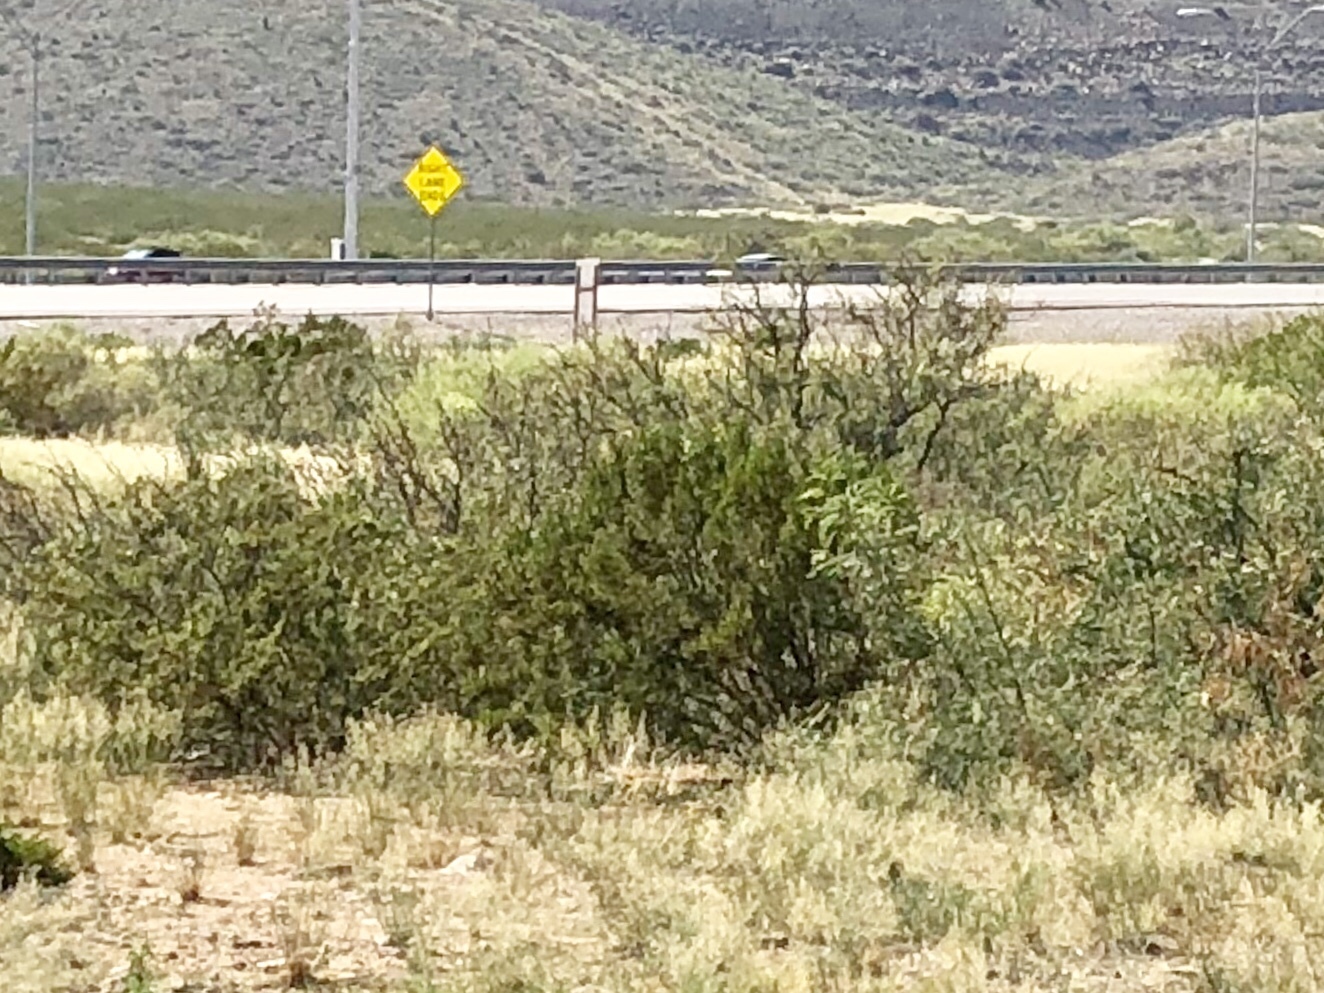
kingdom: Plantae
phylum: Tracheophyta
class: Magnoliopsida
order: Zygophyllales
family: Zygophyllaceae
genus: Larrea
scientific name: Larrea tridentata
